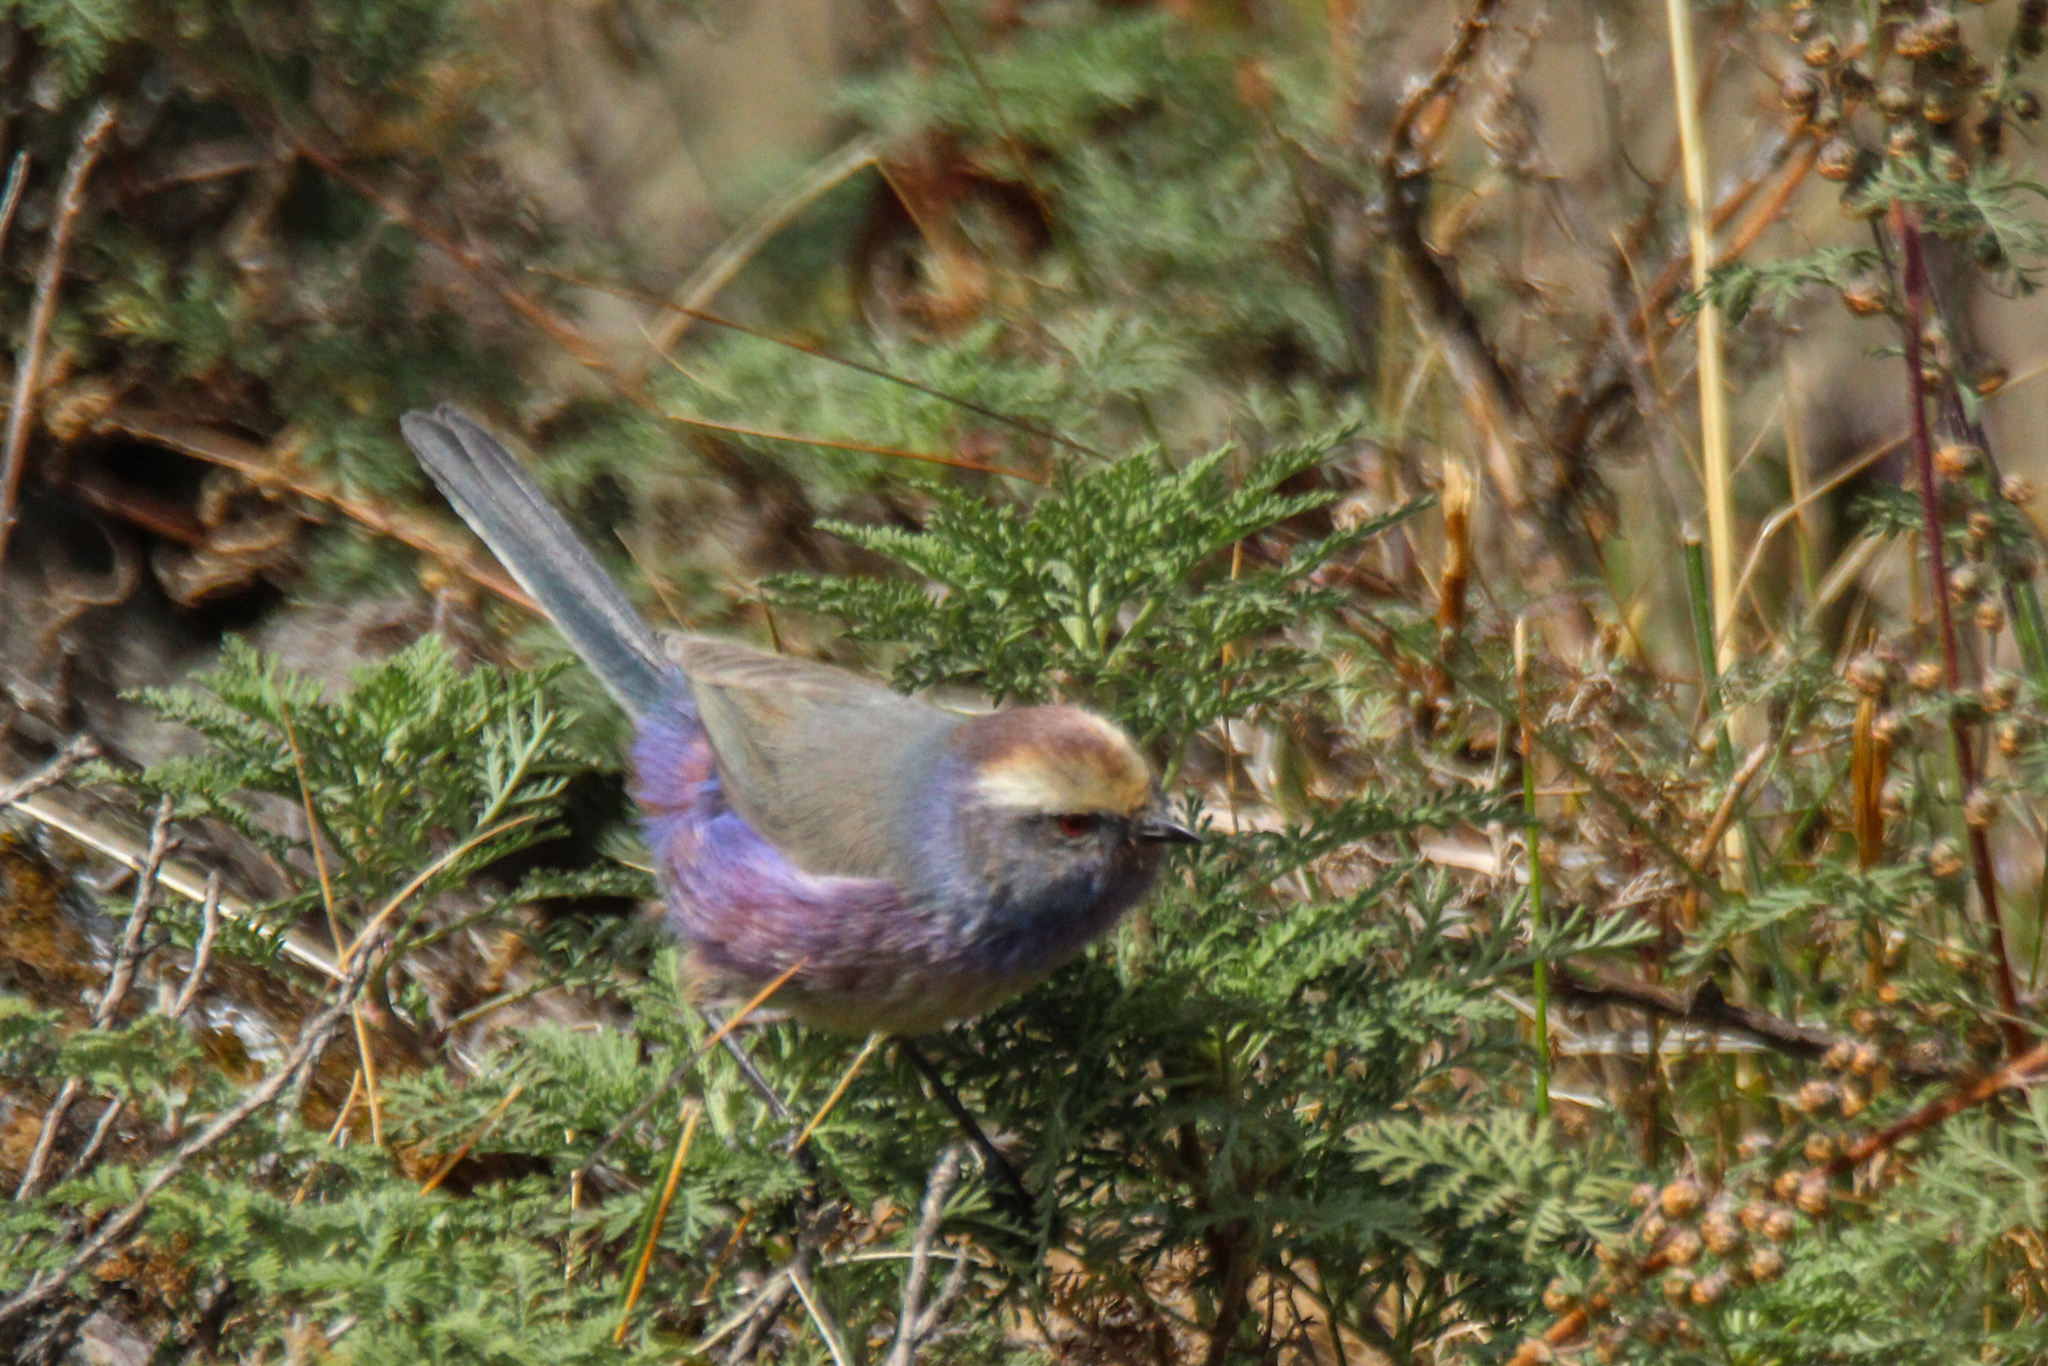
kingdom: Animalia
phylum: Chordata
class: Aves
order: Passeriformes
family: Aegithalidae
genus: Leptopoecile
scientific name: Leptopoecile sophiae
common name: White-browed tit-warbler
